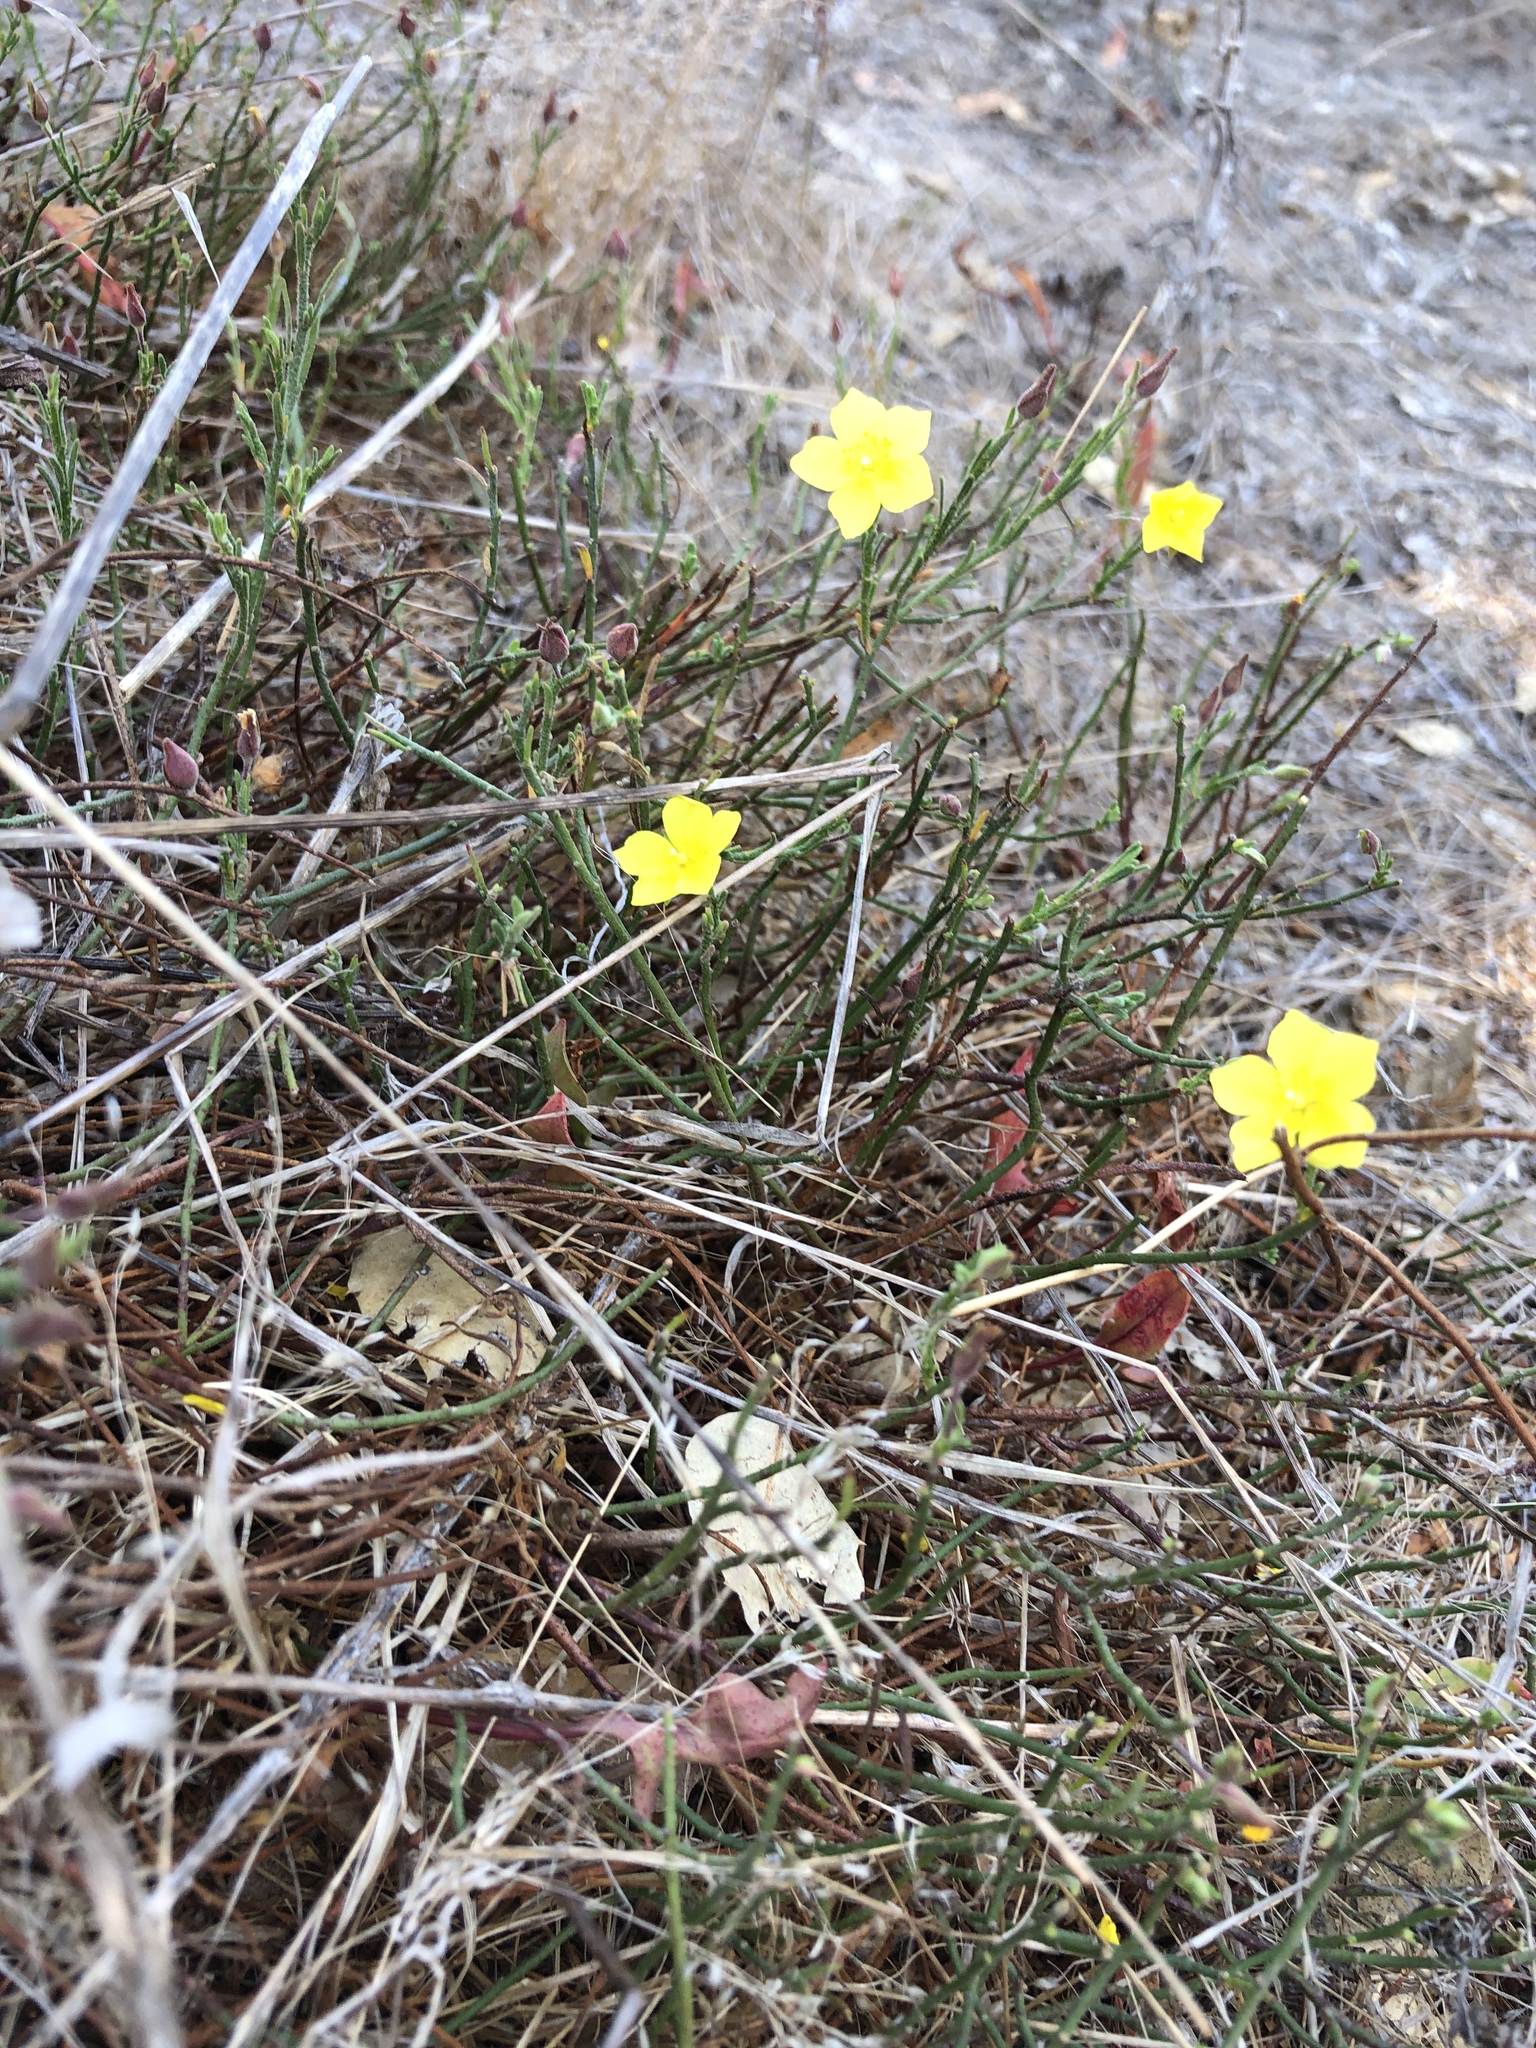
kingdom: Plantae
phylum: Tracheophyta
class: Magnoliopsida
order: Malvales
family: Cistaceae
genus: Crocanthemum
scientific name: Crocanthemum scoparium
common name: Broom-rose
